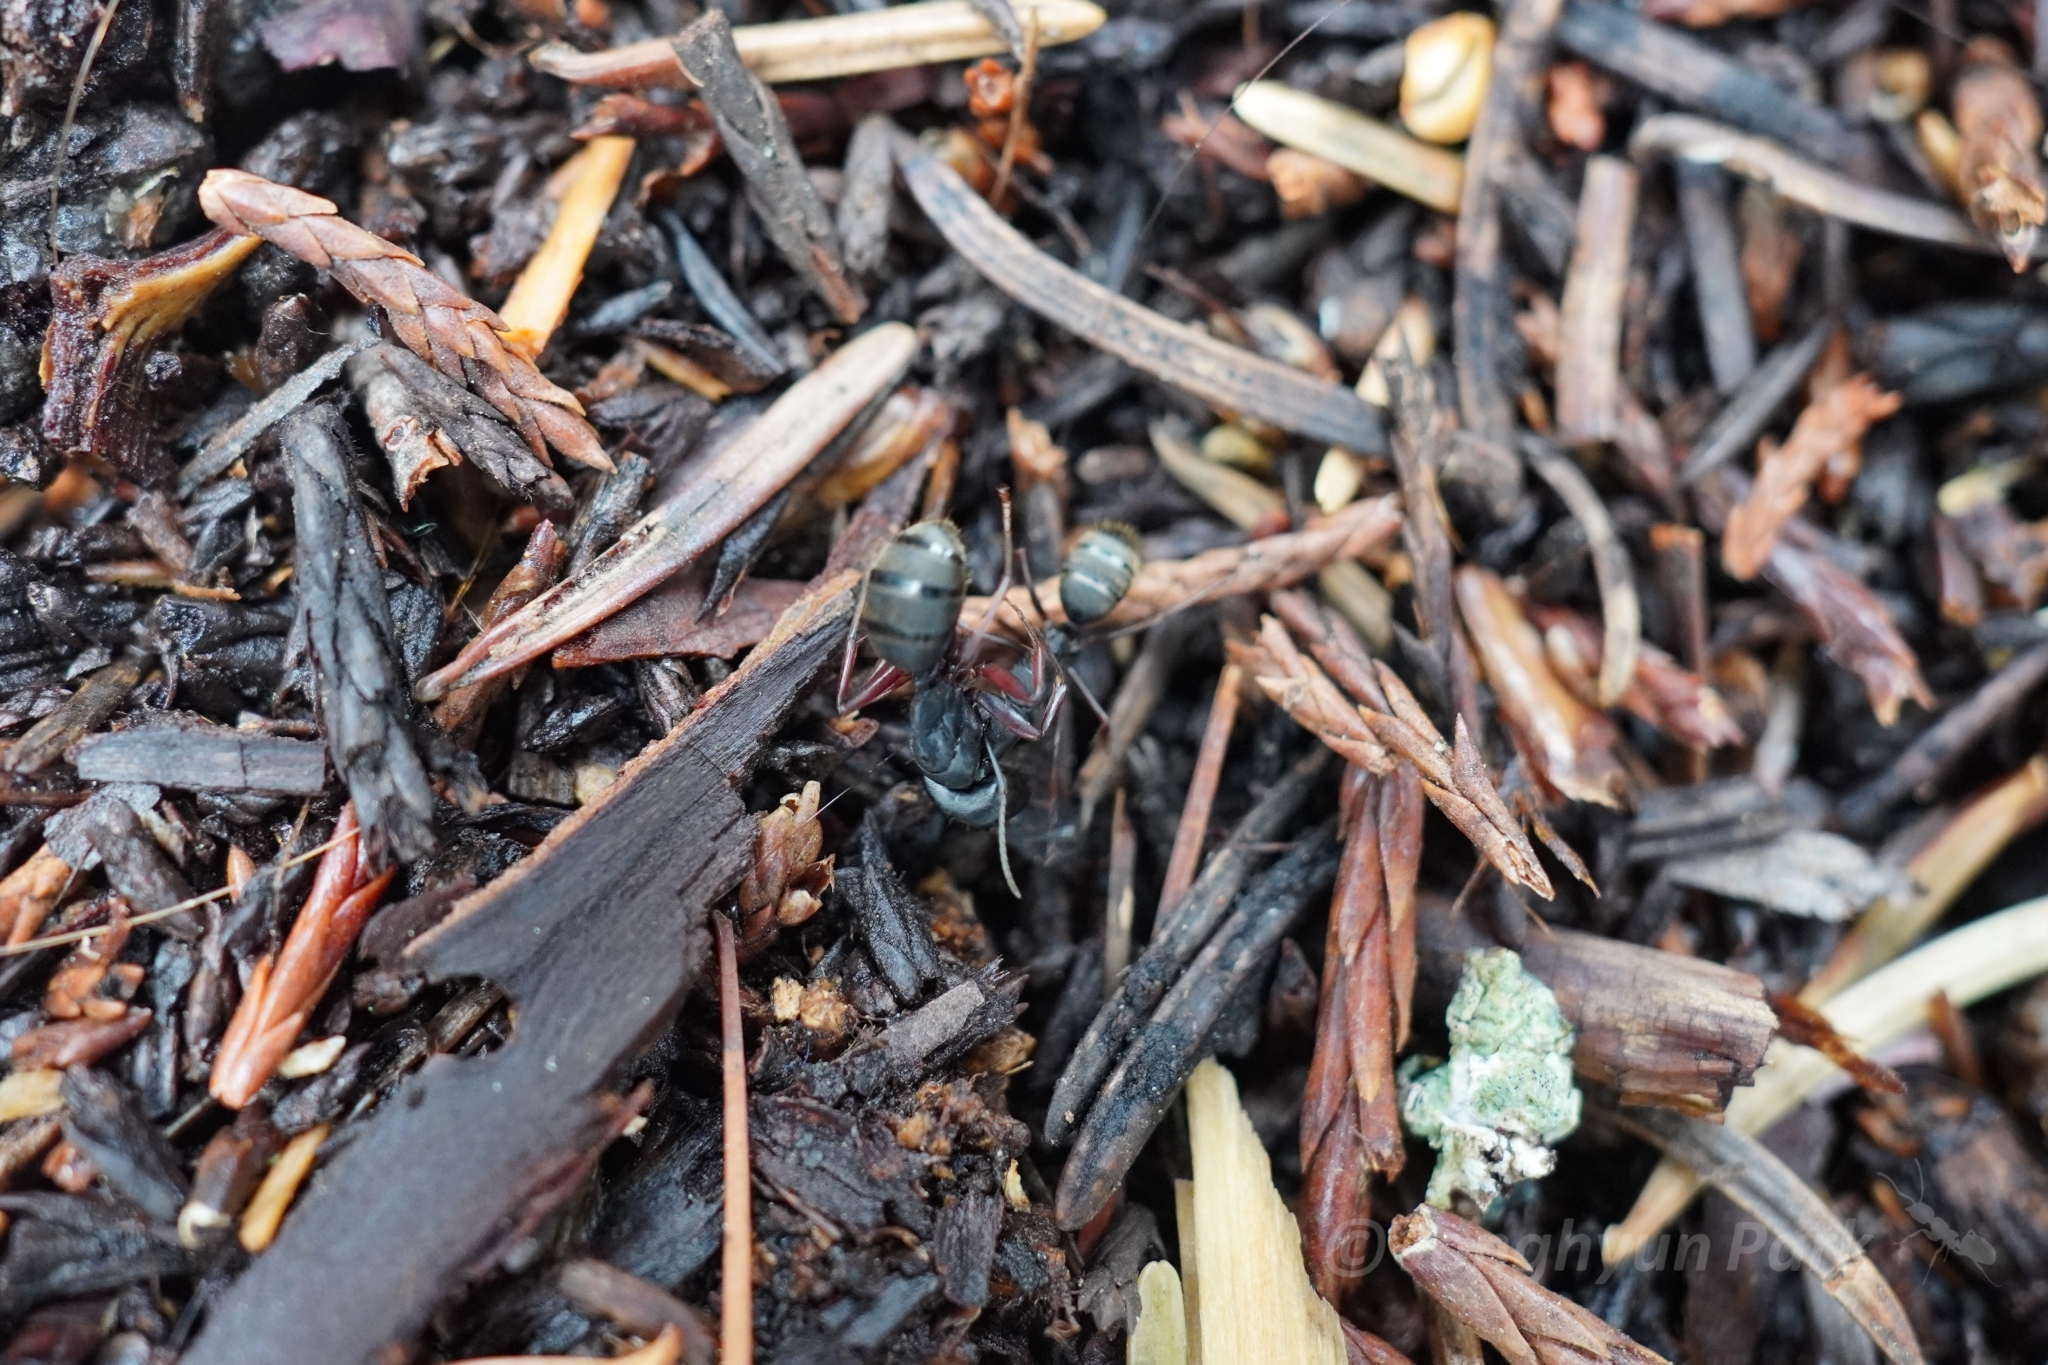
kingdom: Animalia
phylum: Arthropoda
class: Insecta
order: Hymenoptera
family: Formicidae
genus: Camponotus
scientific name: Camponotus modoc
